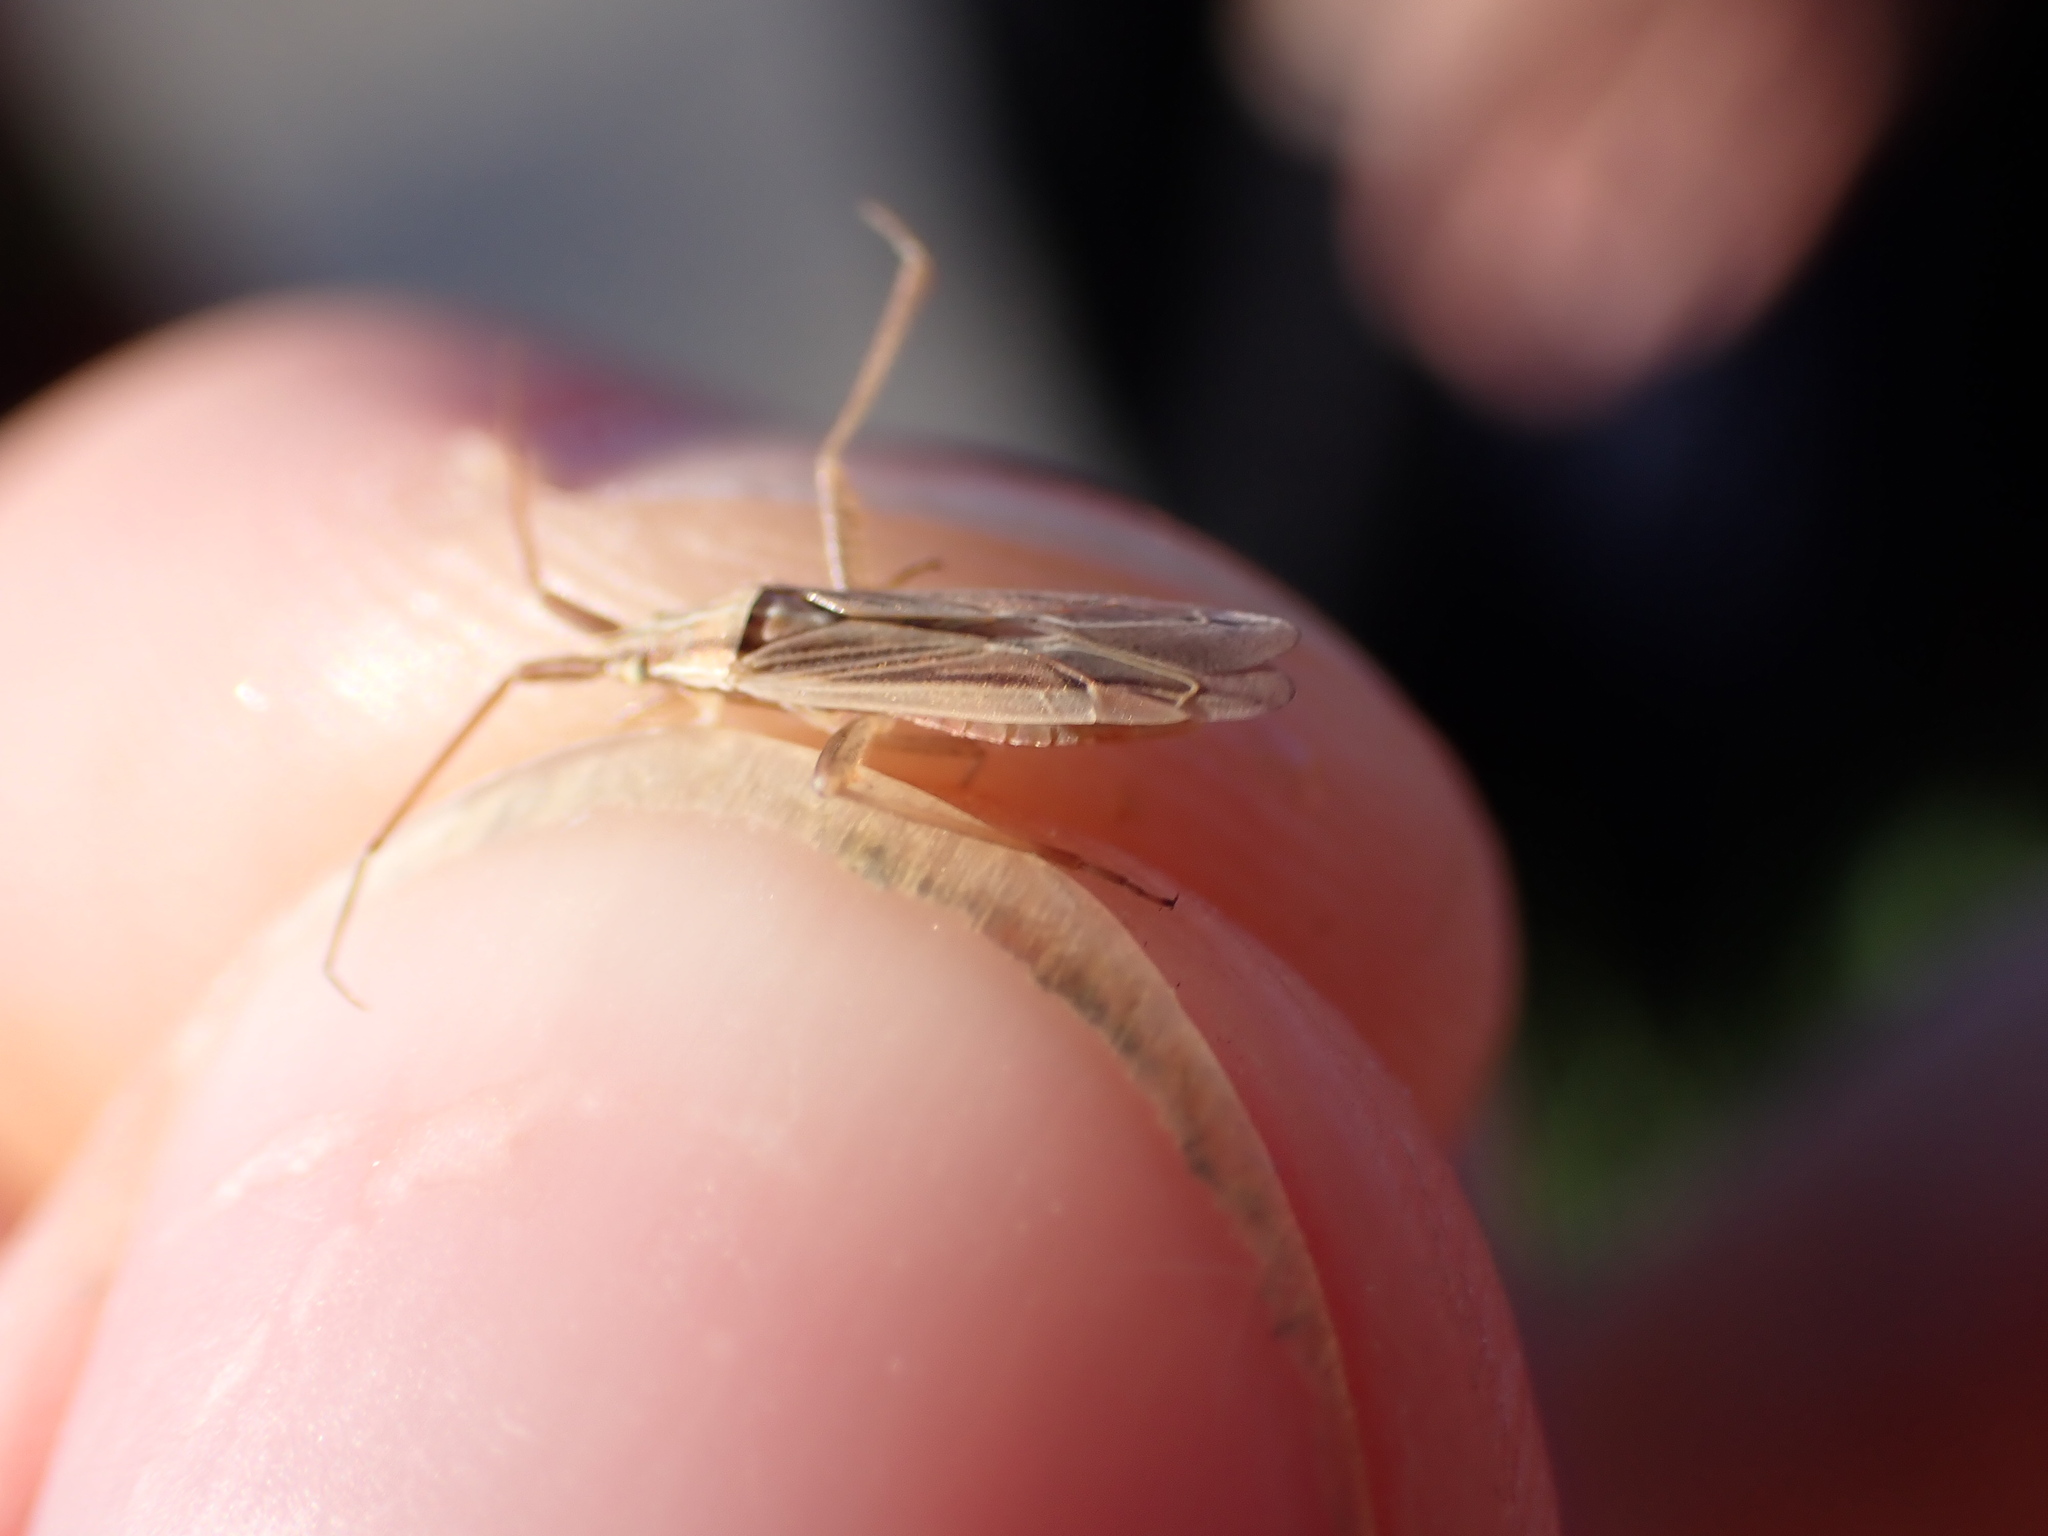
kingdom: Animalia
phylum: Arthropoda
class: Insecta
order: Hemiptera
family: Miridae
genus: Stenodema
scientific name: Stenodema calcarata
